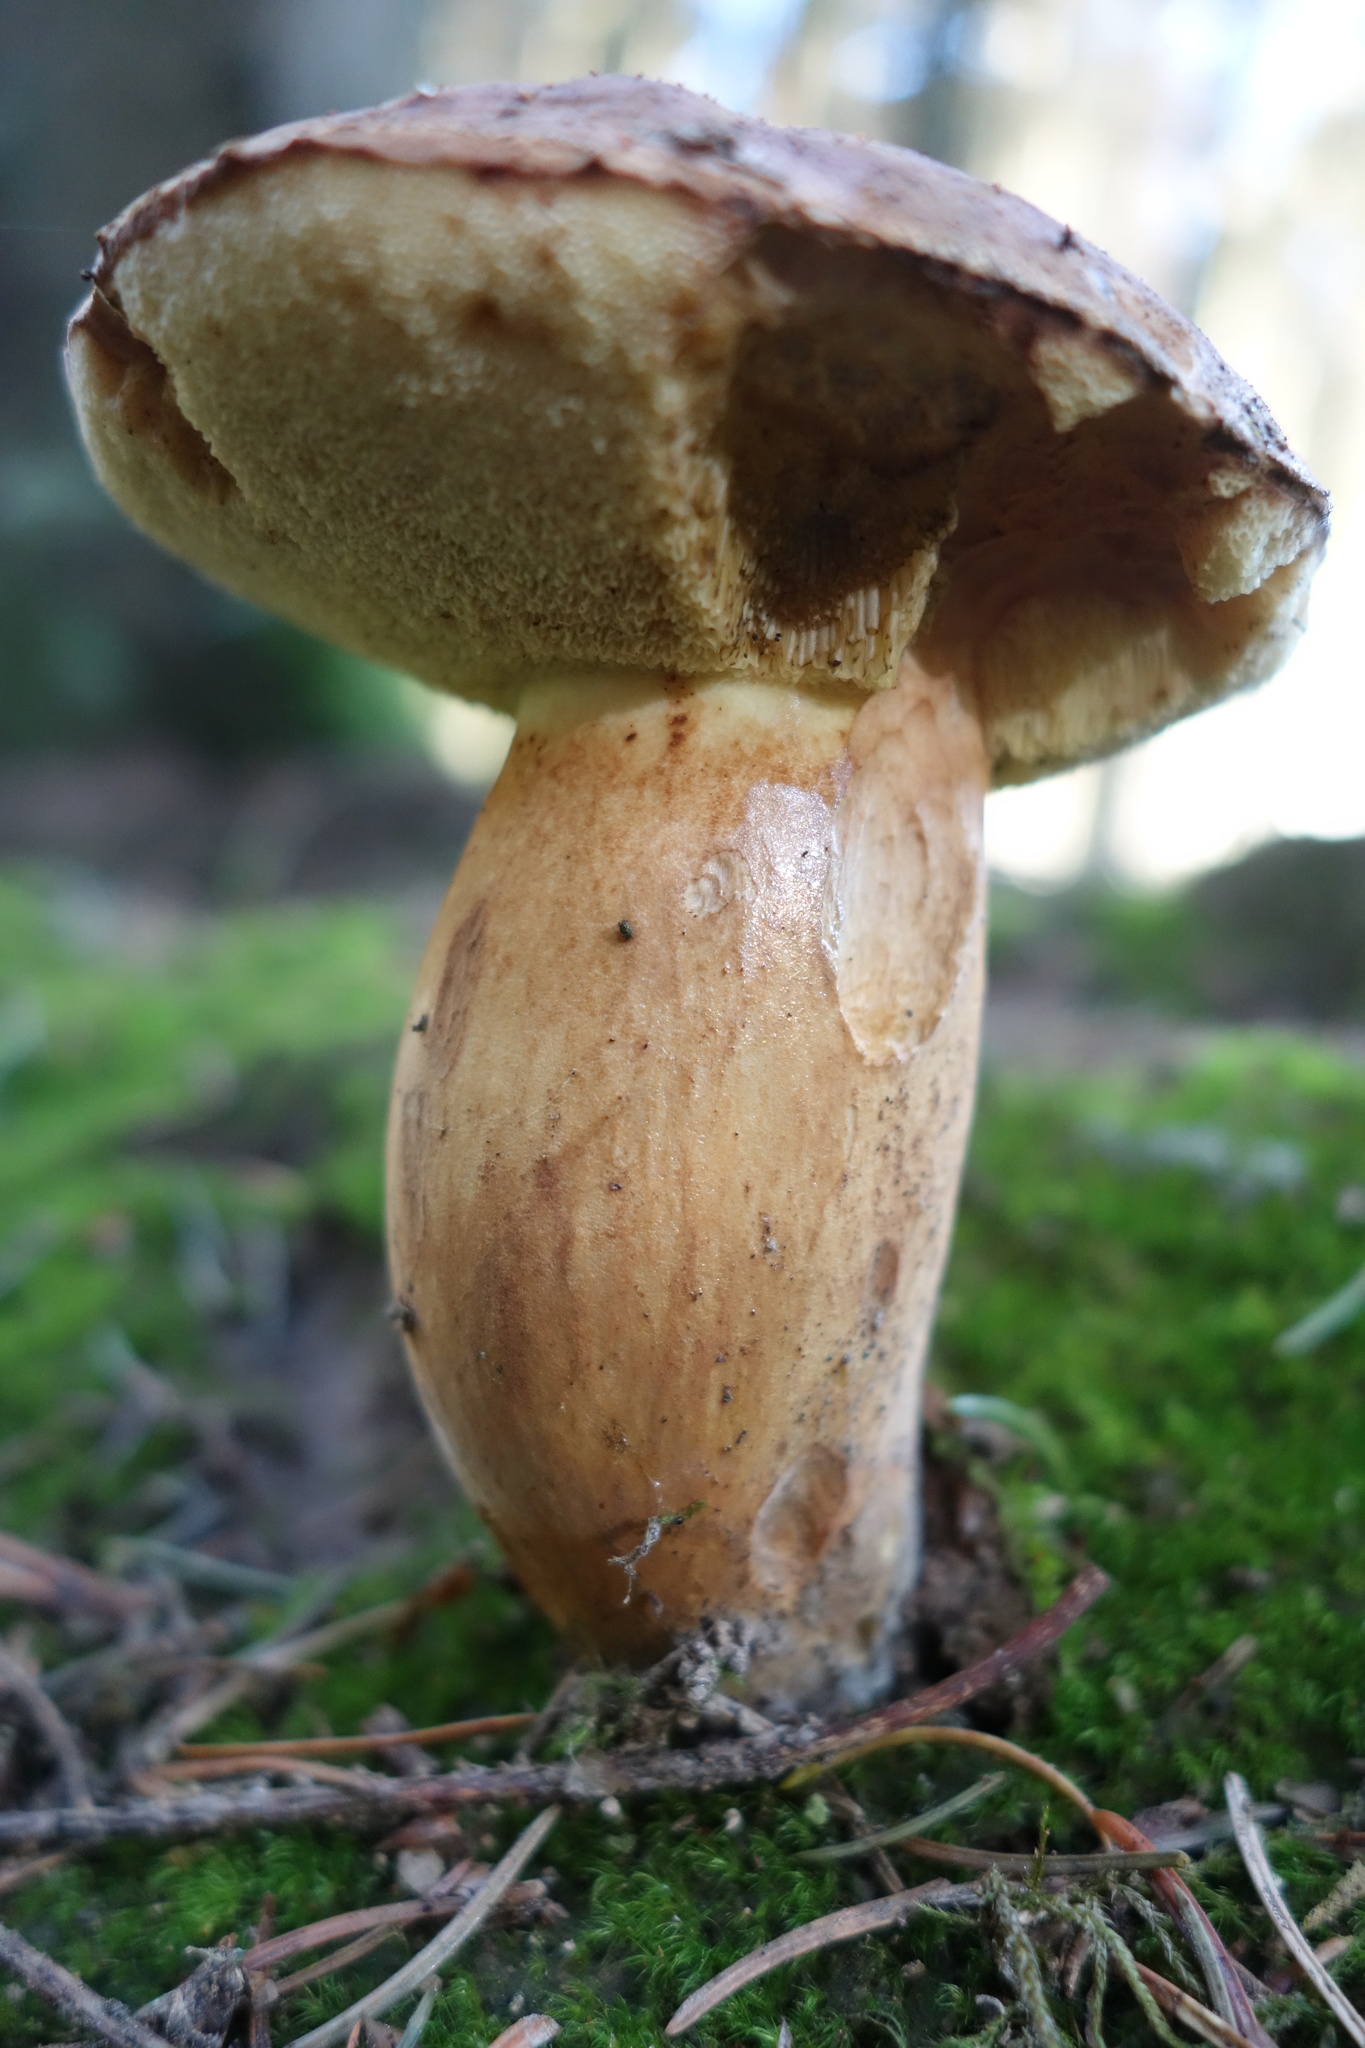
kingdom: Fungi
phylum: Basidiomycota
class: Agaricomycetes
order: Boletales
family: Boletaceae
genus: Imleria
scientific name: Imleria badia
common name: Bay bolete
